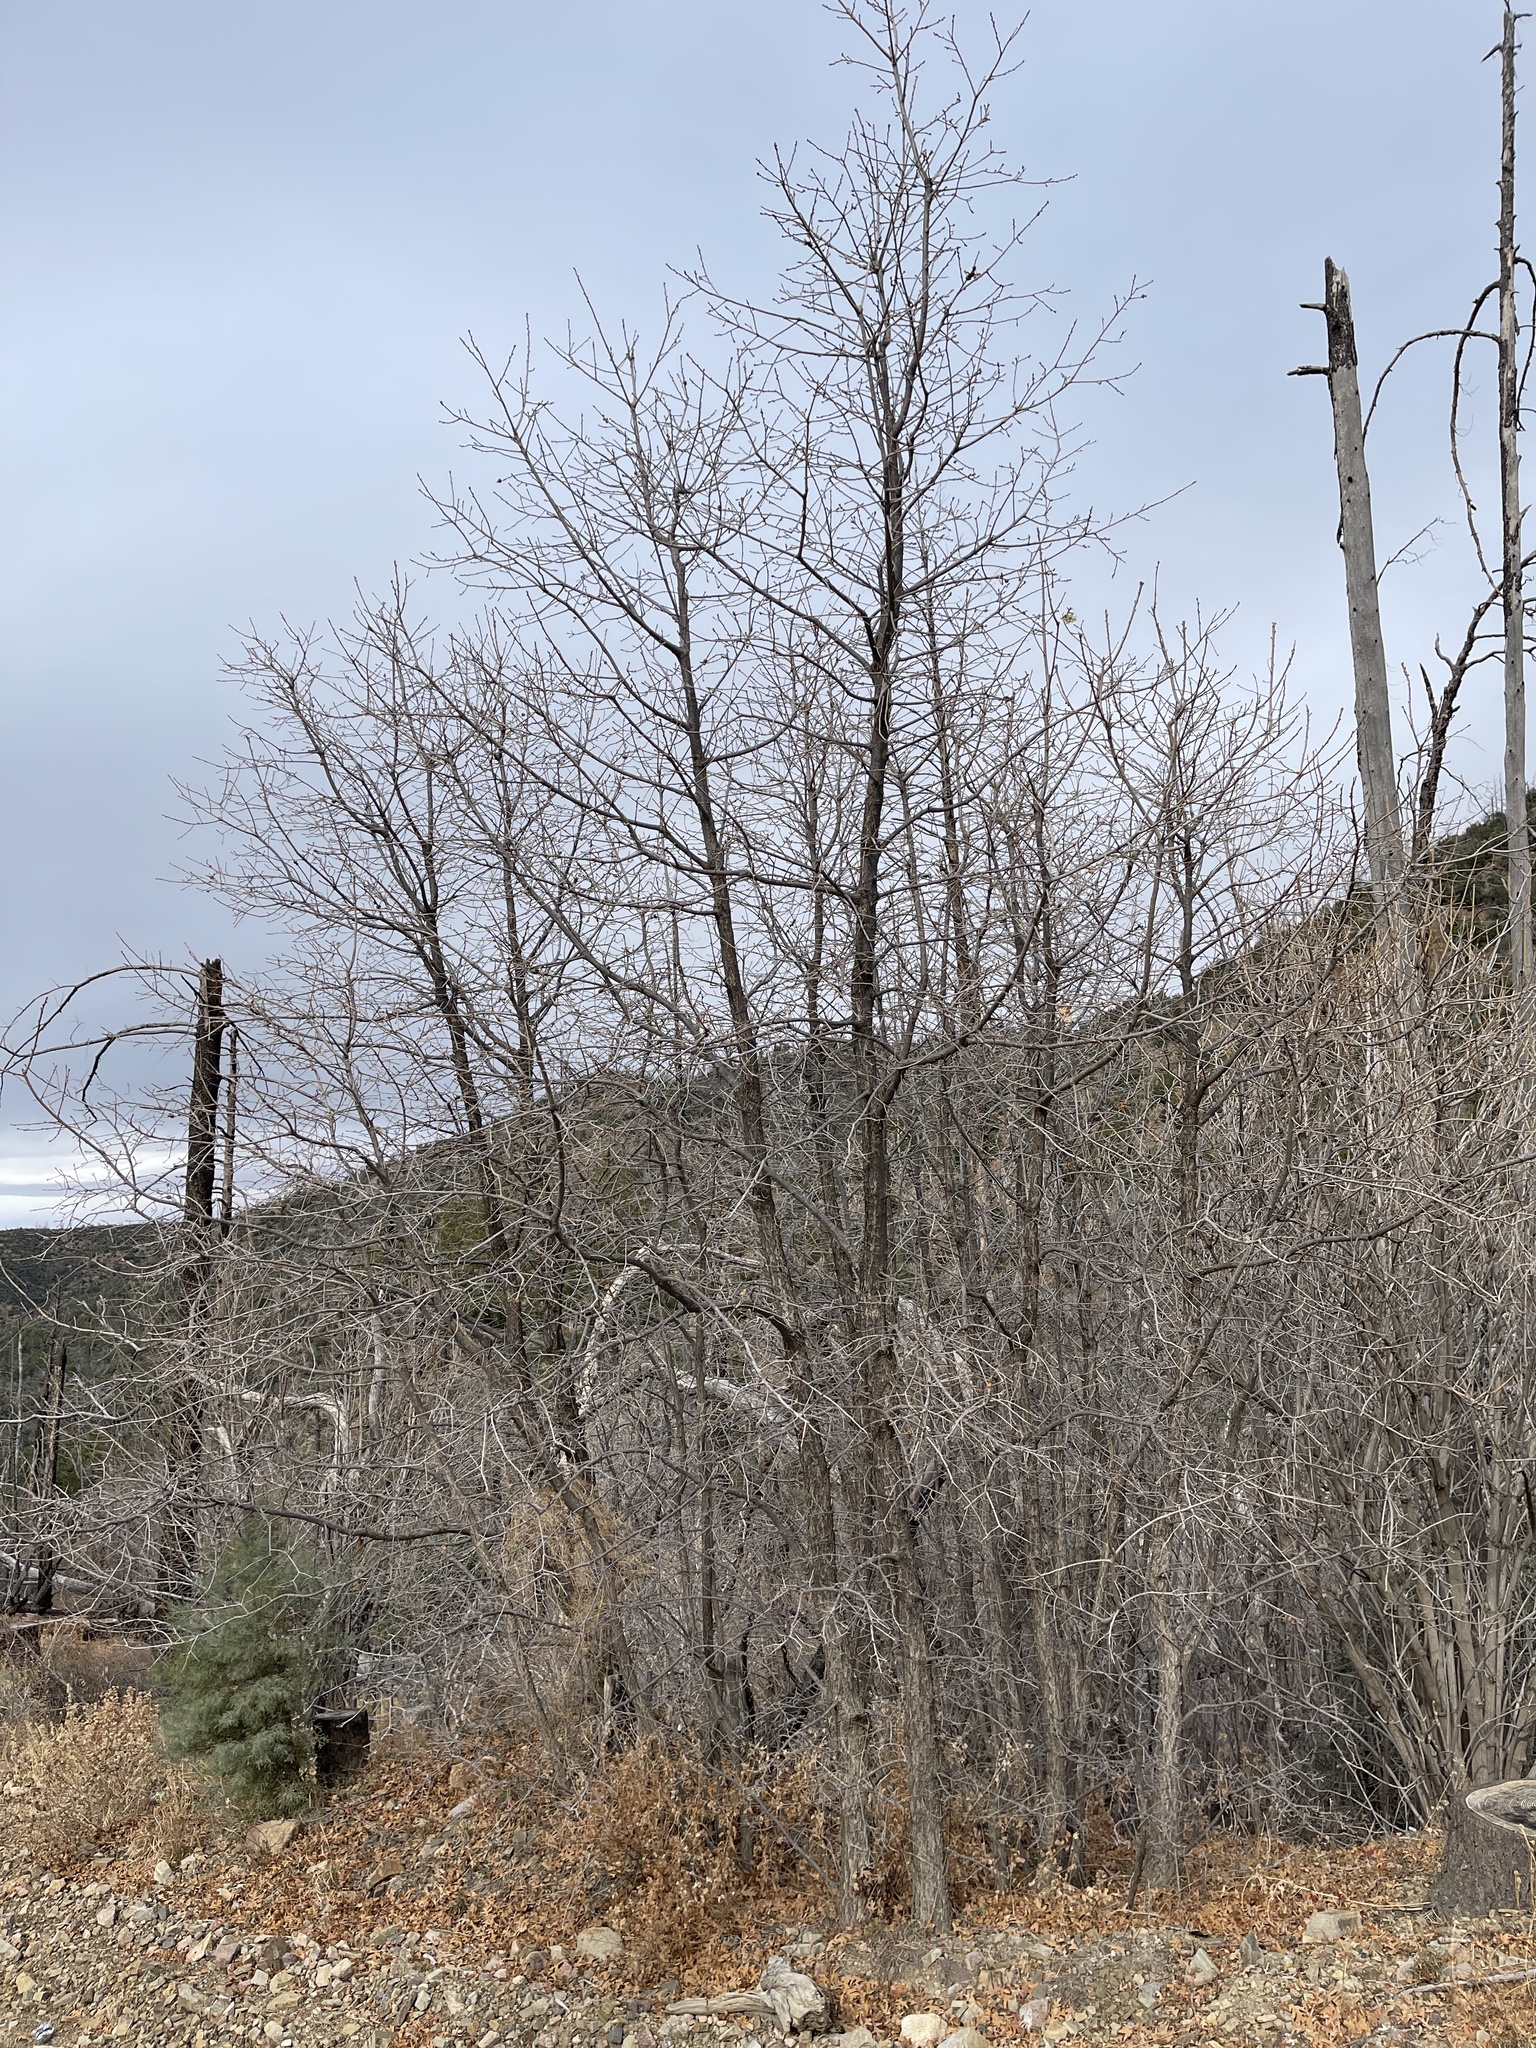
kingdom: Plantae
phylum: Tracheophyta
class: Magnoliopsida
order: Fagales
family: Fagaceae
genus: Quercus
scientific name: Quercus gambelii
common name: Gambel oak
